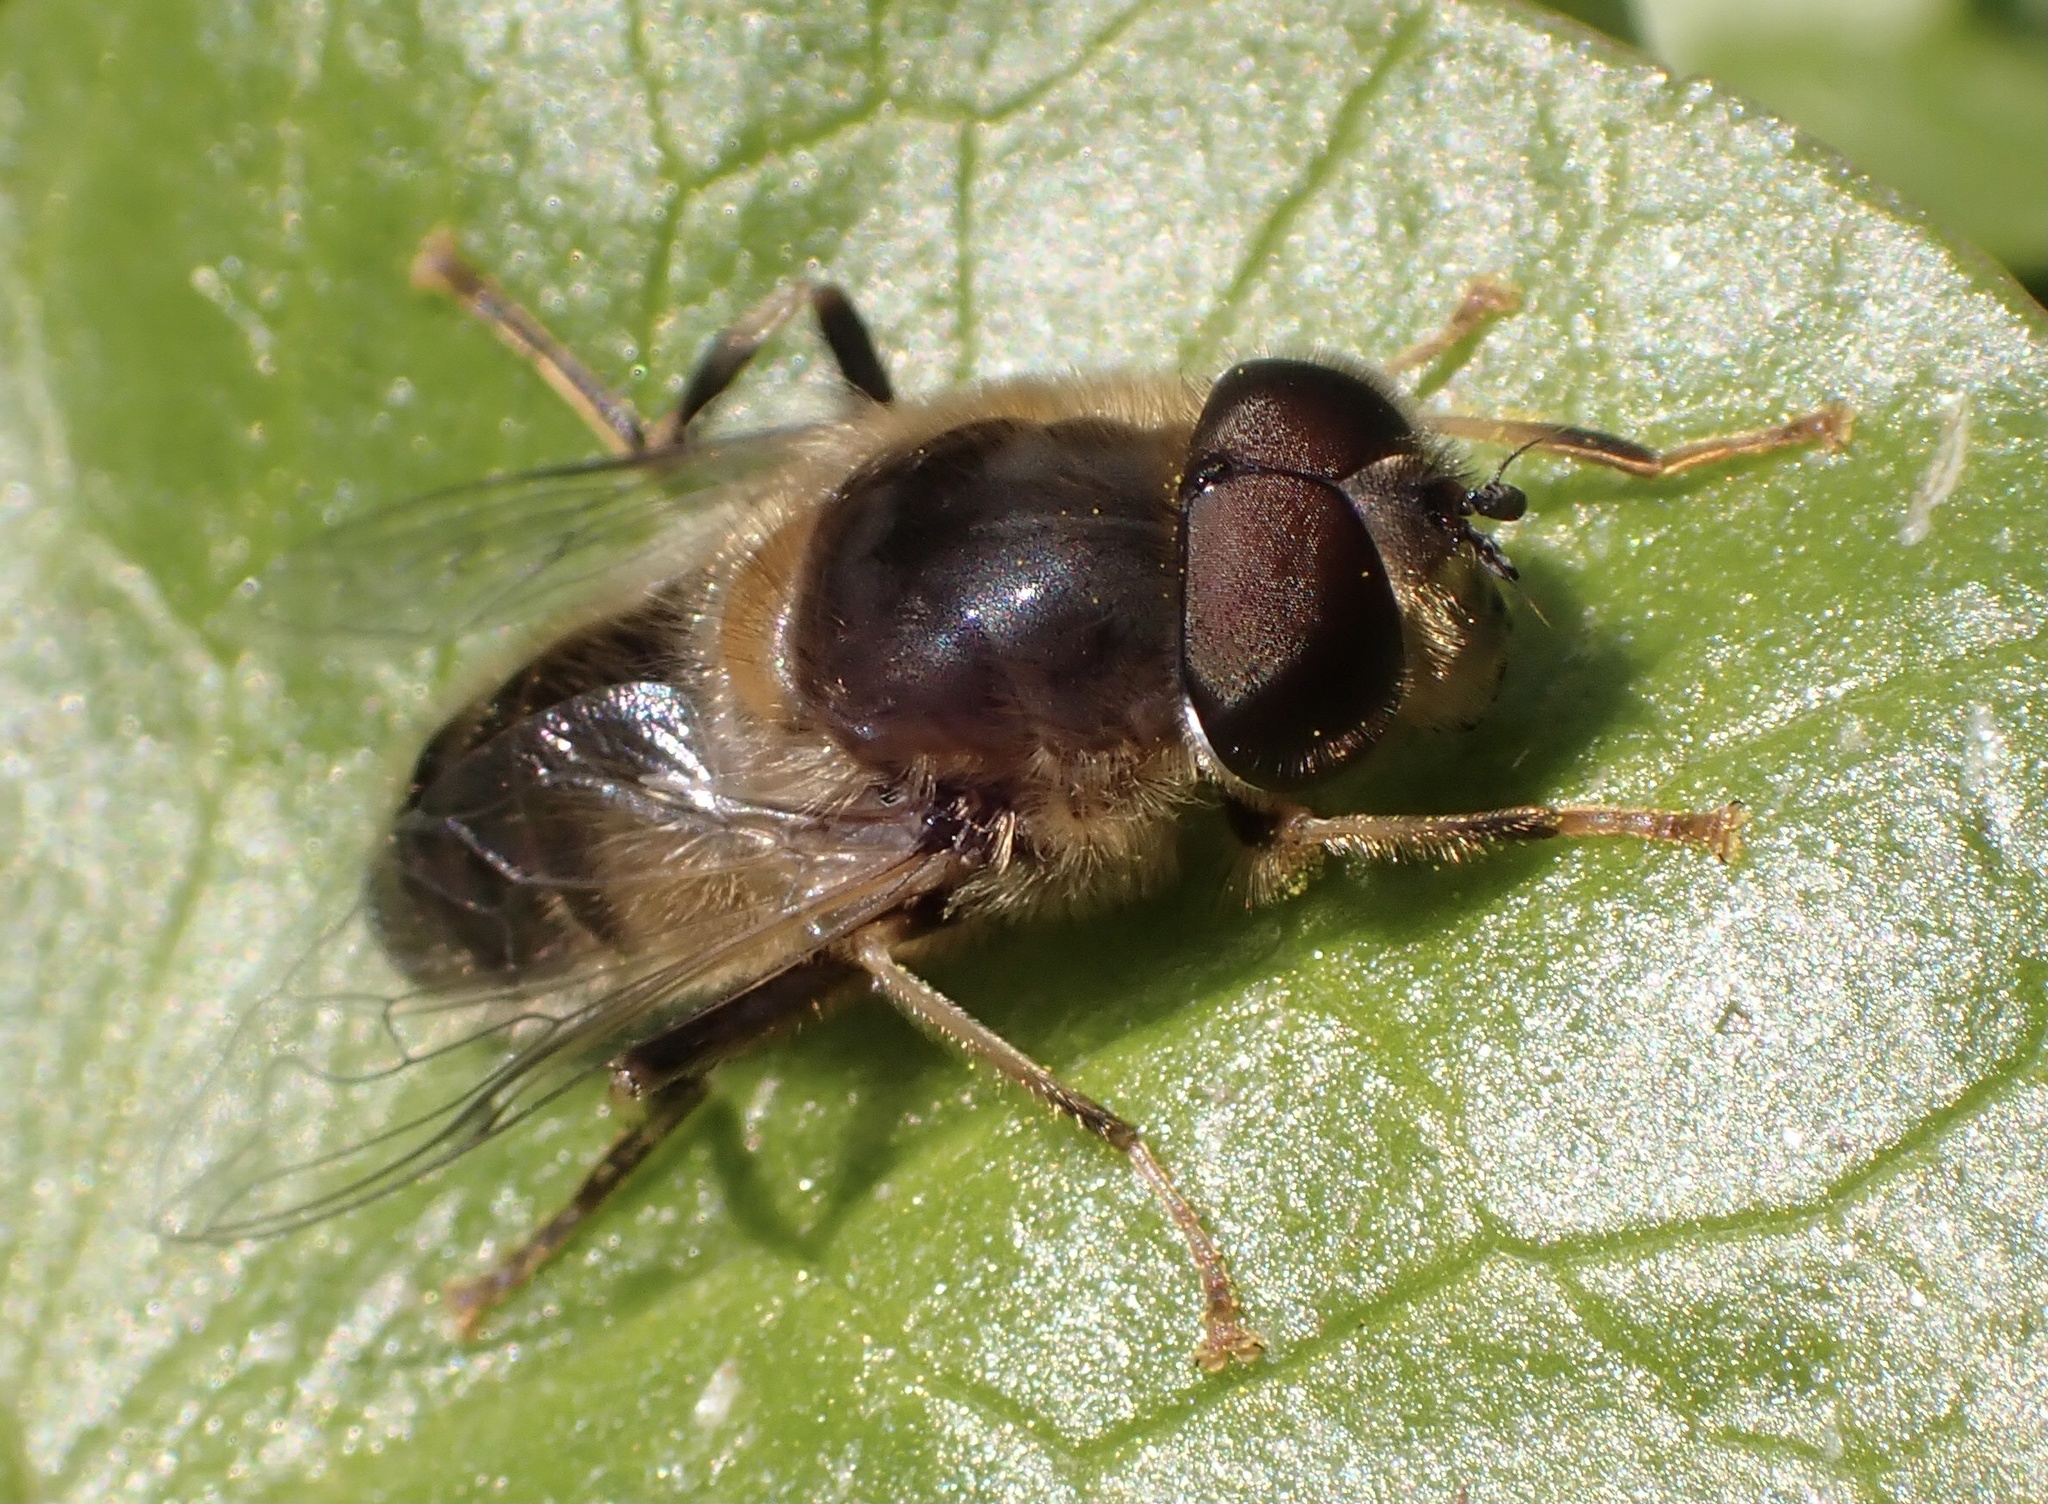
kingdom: Animalia
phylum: Arthropoda
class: Insecta
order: Diptera
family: Syrphidae
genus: Eristalis
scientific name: Eristalis pertinax
